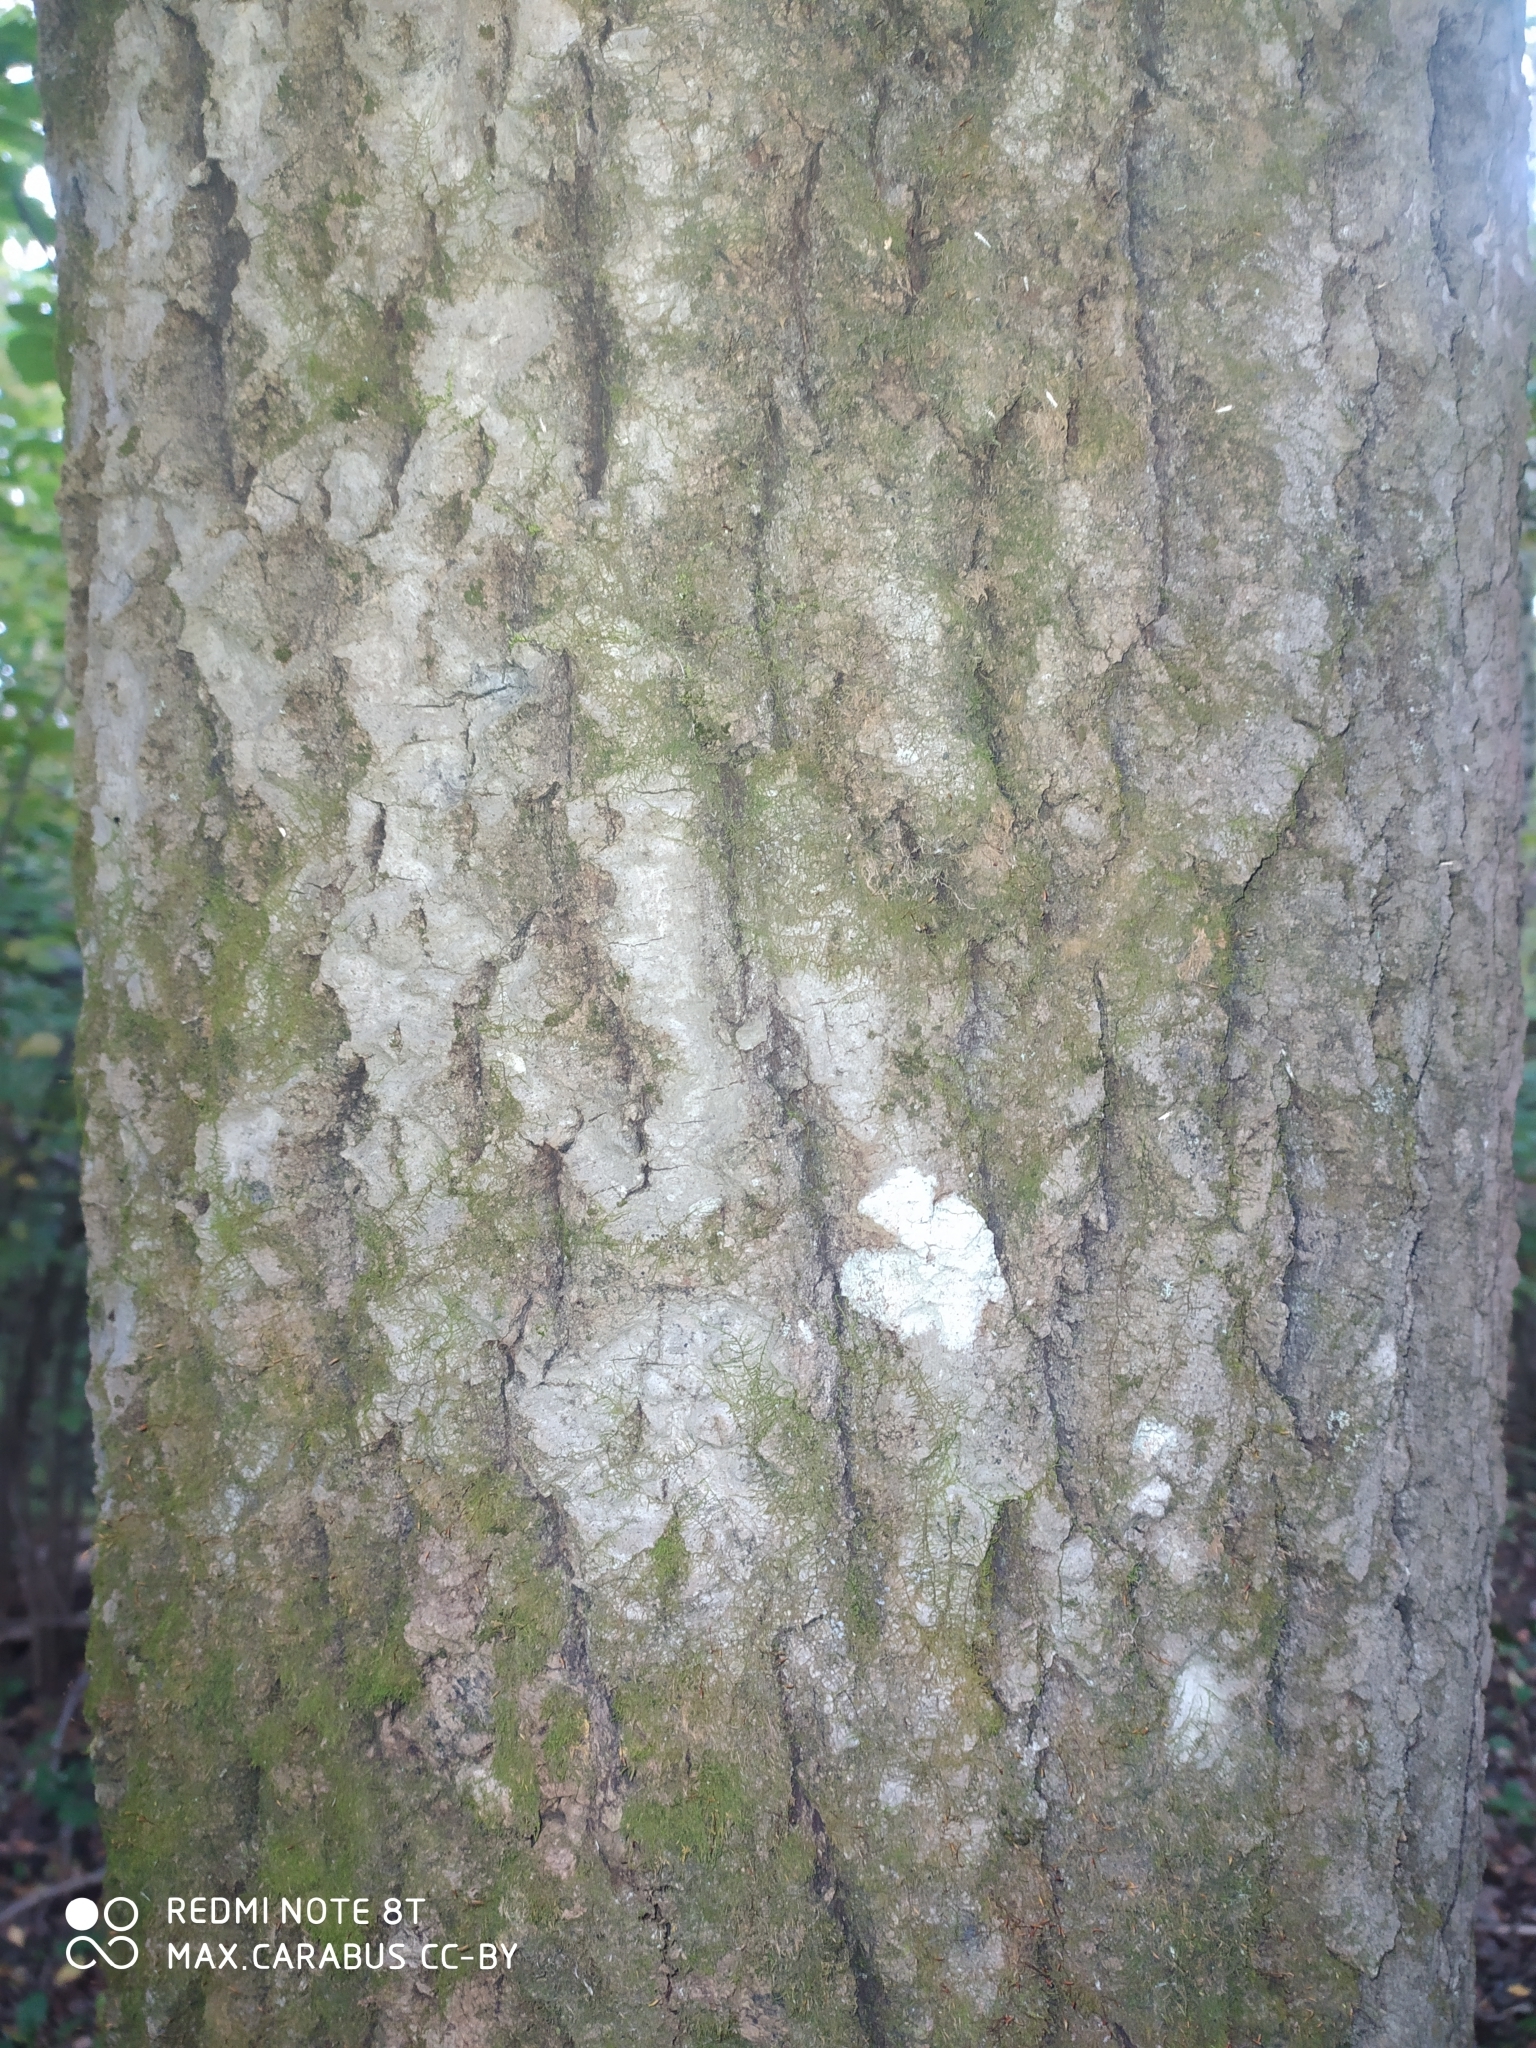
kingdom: Plantae
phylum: Tracheophyta
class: Magnoliopsida
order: Malpighiales
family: Salicaceae
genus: Populus
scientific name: Populus tremula
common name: European aspen
